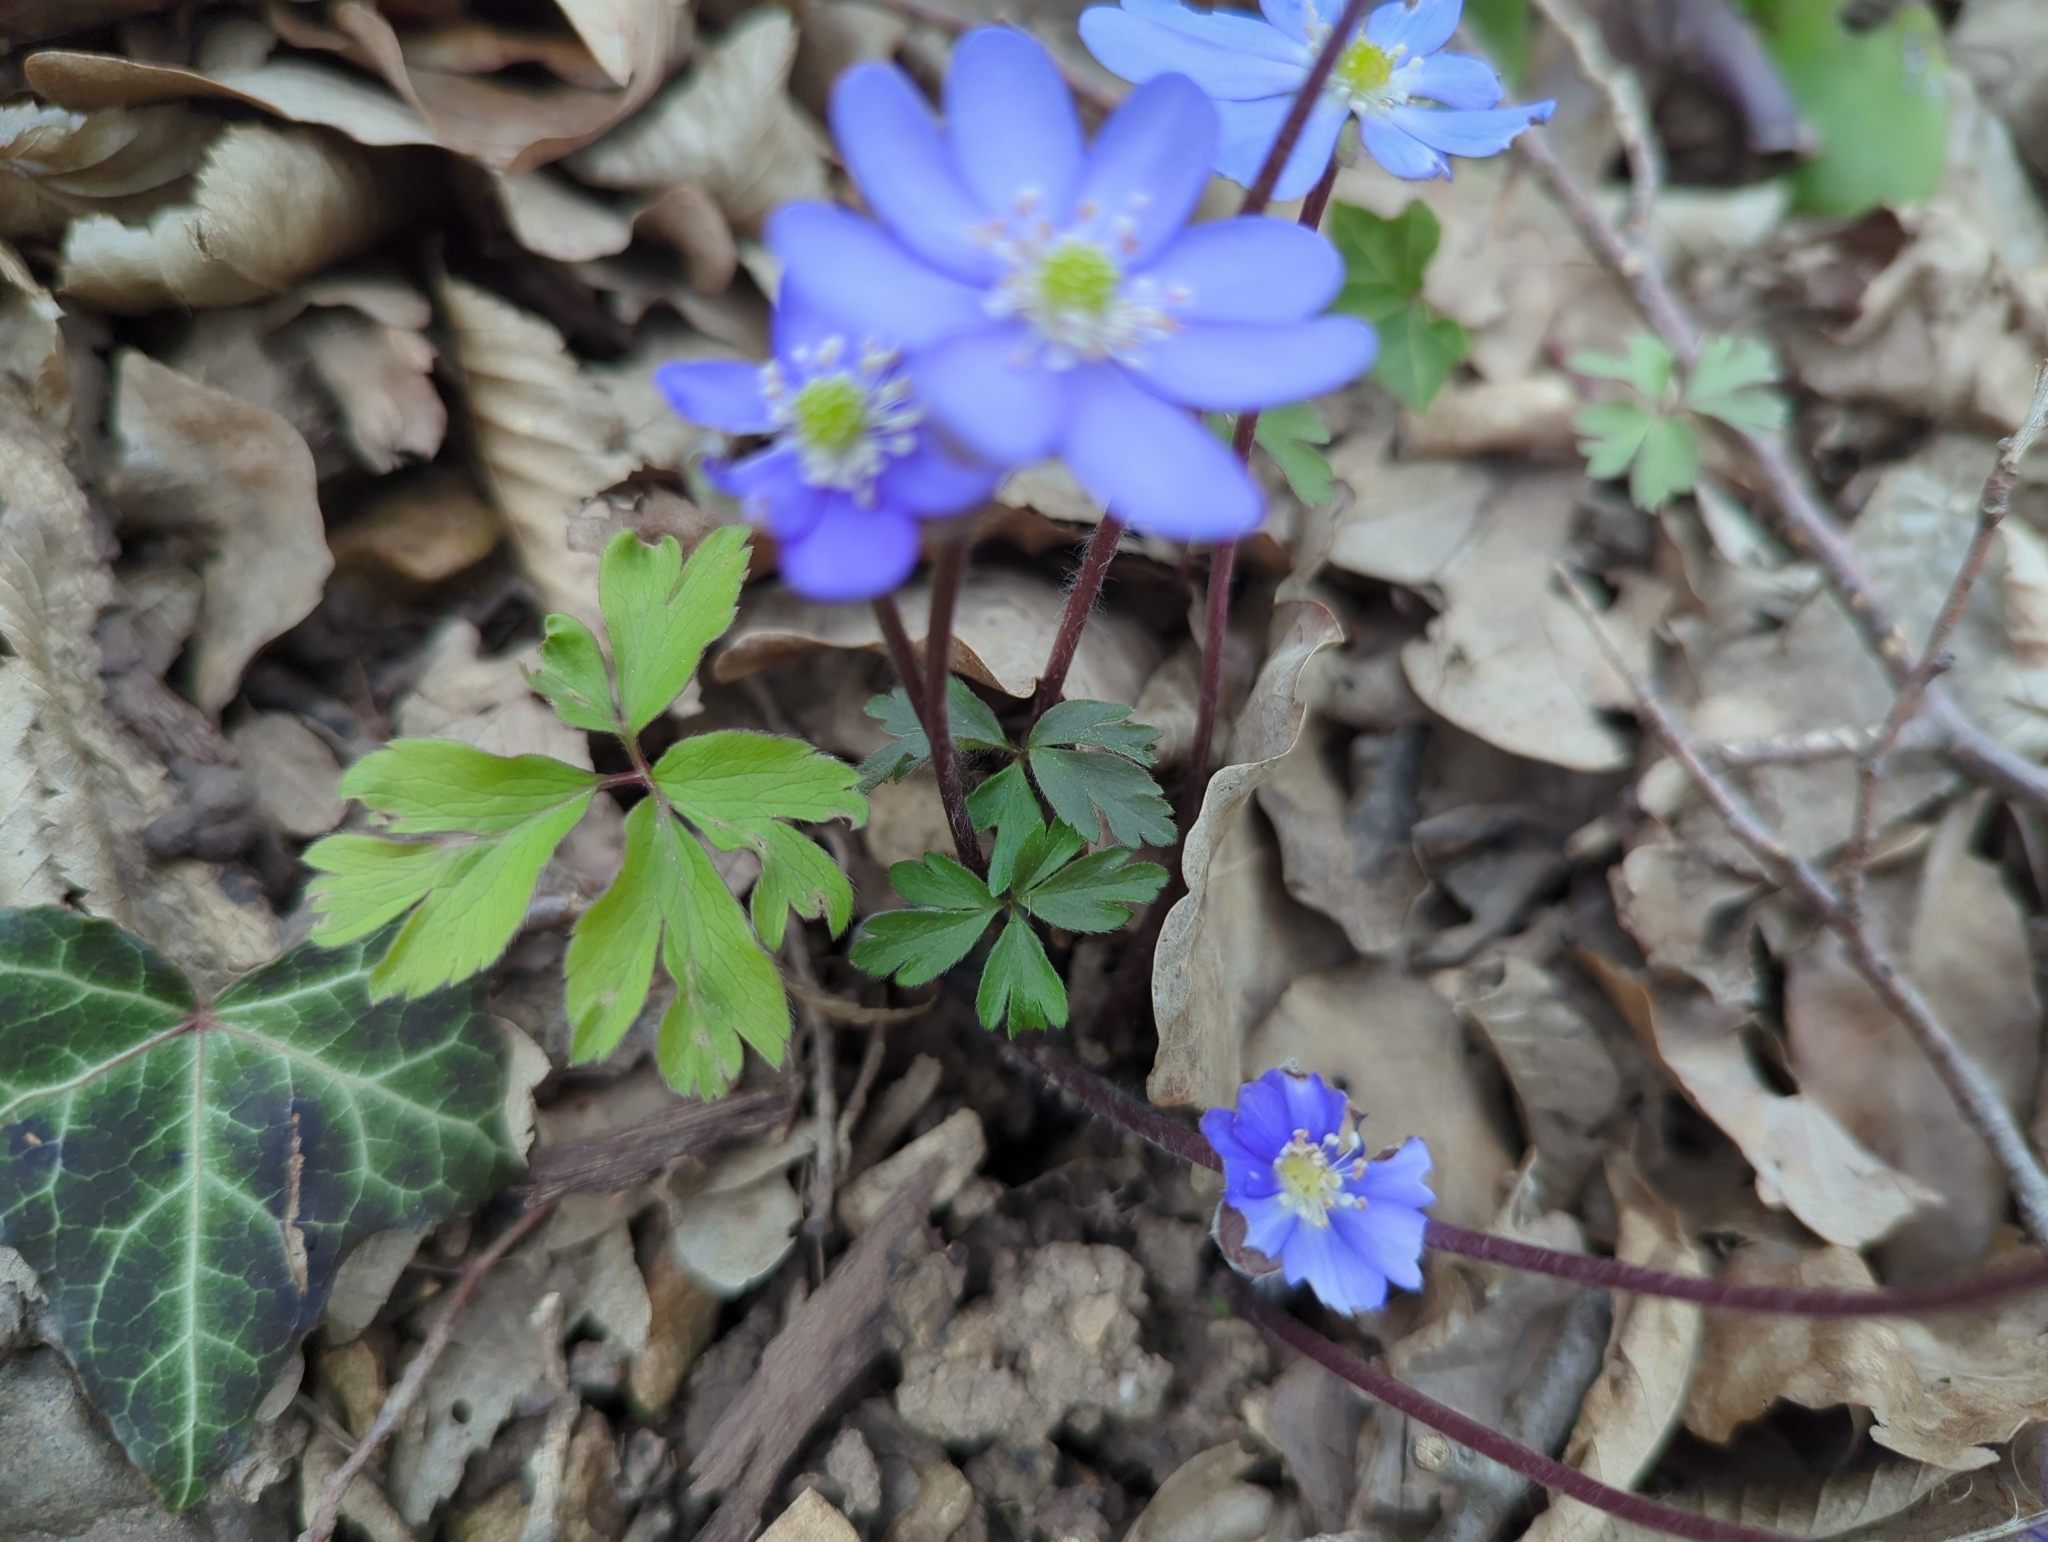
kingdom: Plantae
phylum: Tracheophyta
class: Magnoliopsida
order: Ranunculales
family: Ranunculaceae
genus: Hepatica
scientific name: Hepatica nobilis
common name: Liverleaf
